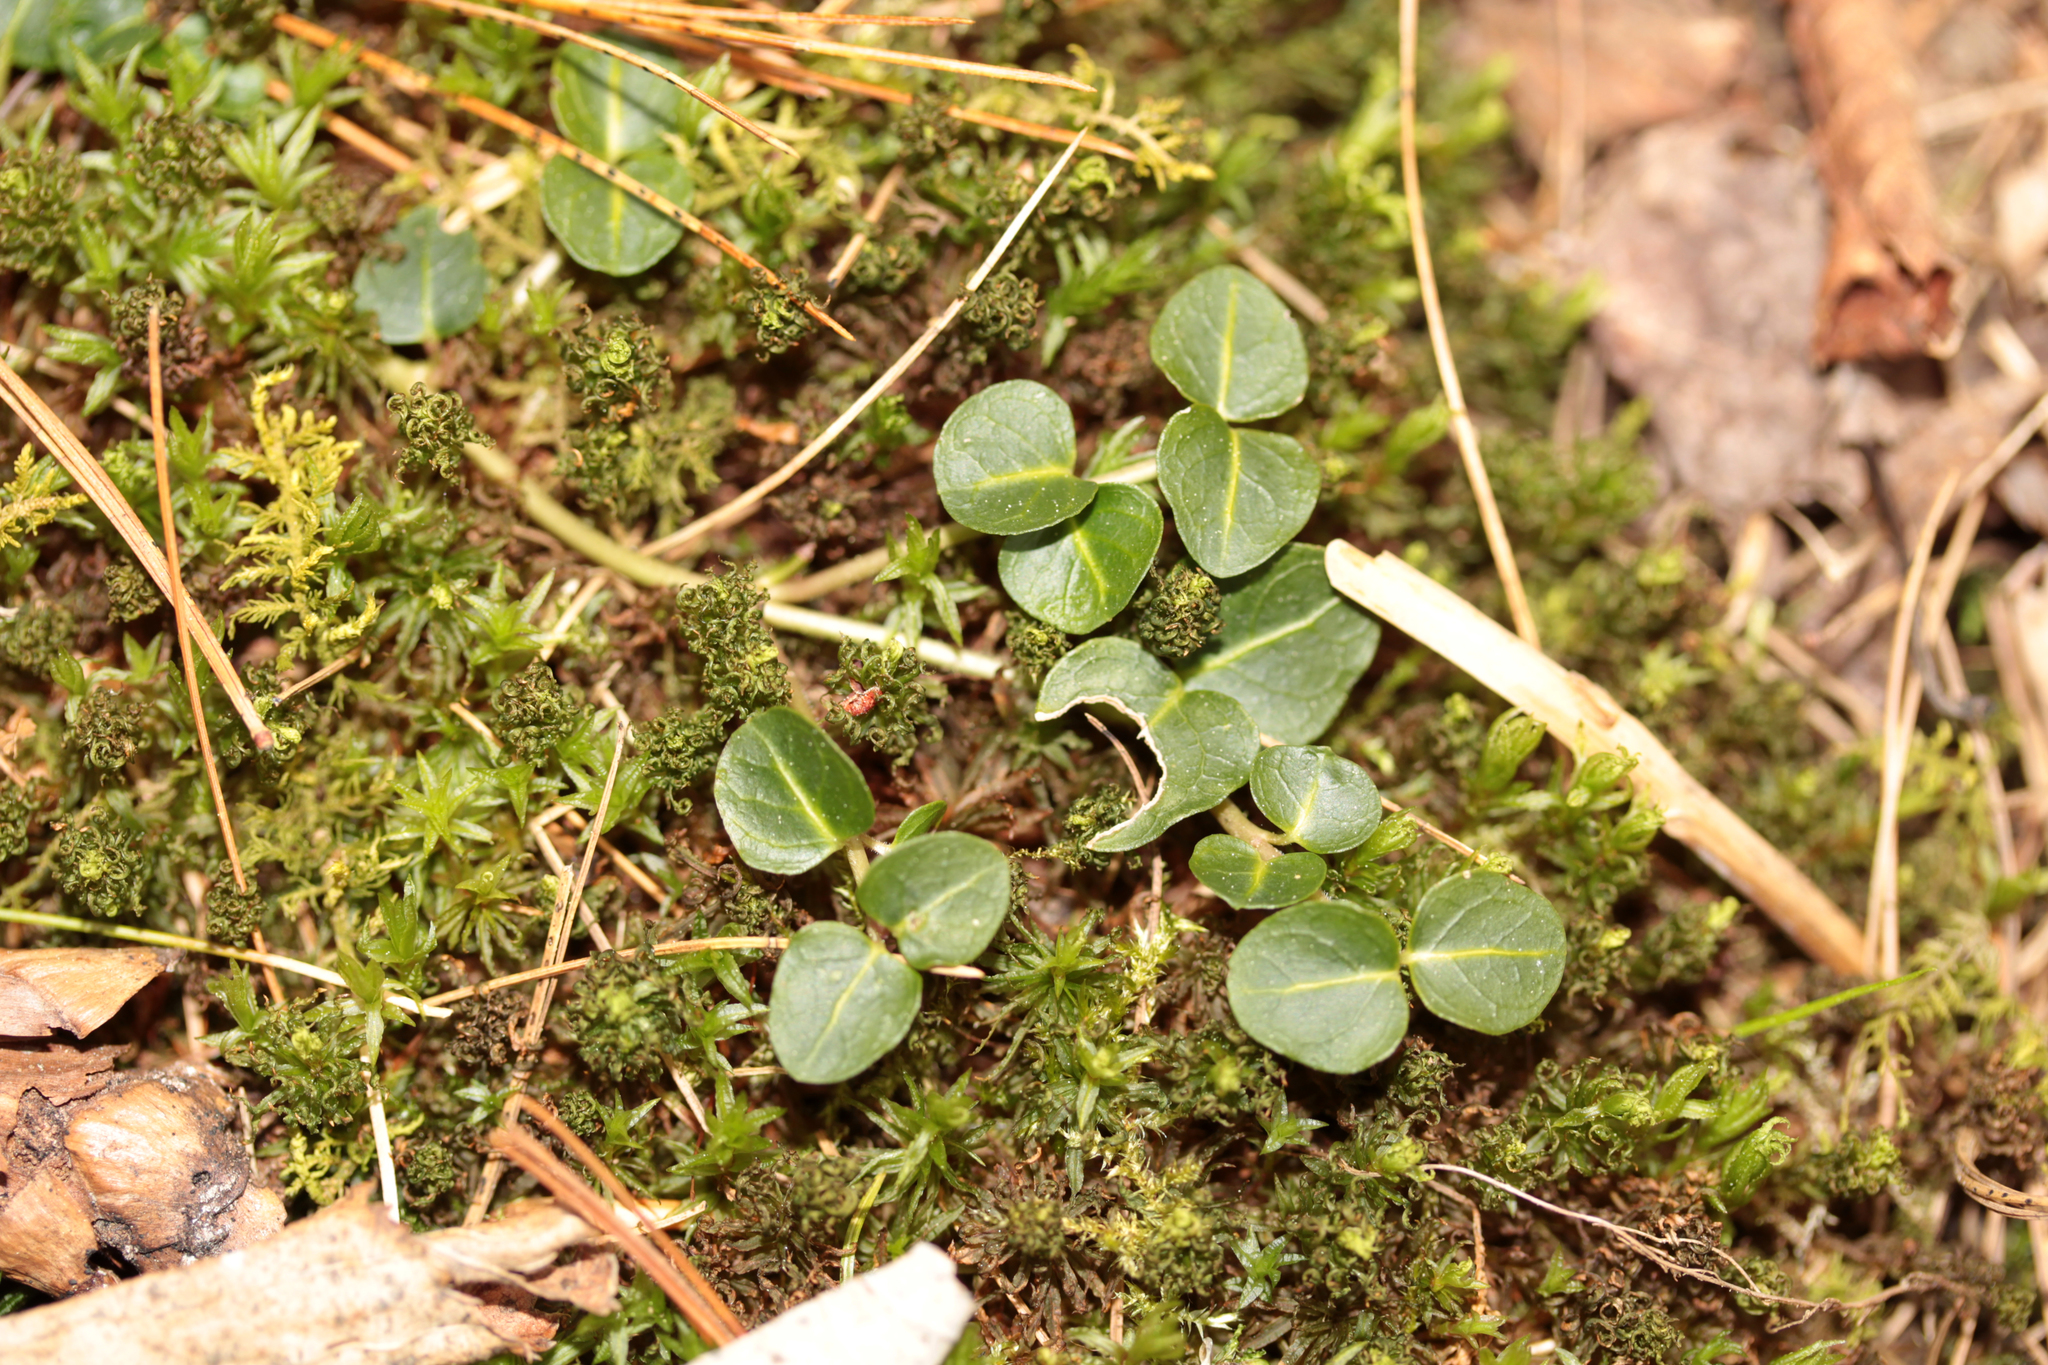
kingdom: Plantae
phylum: Tracheophyta
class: Magnoliopsida
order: Gentianales
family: Rubiaceae
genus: Mitchella
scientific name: Mitchella repens
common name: Partridge-berry
